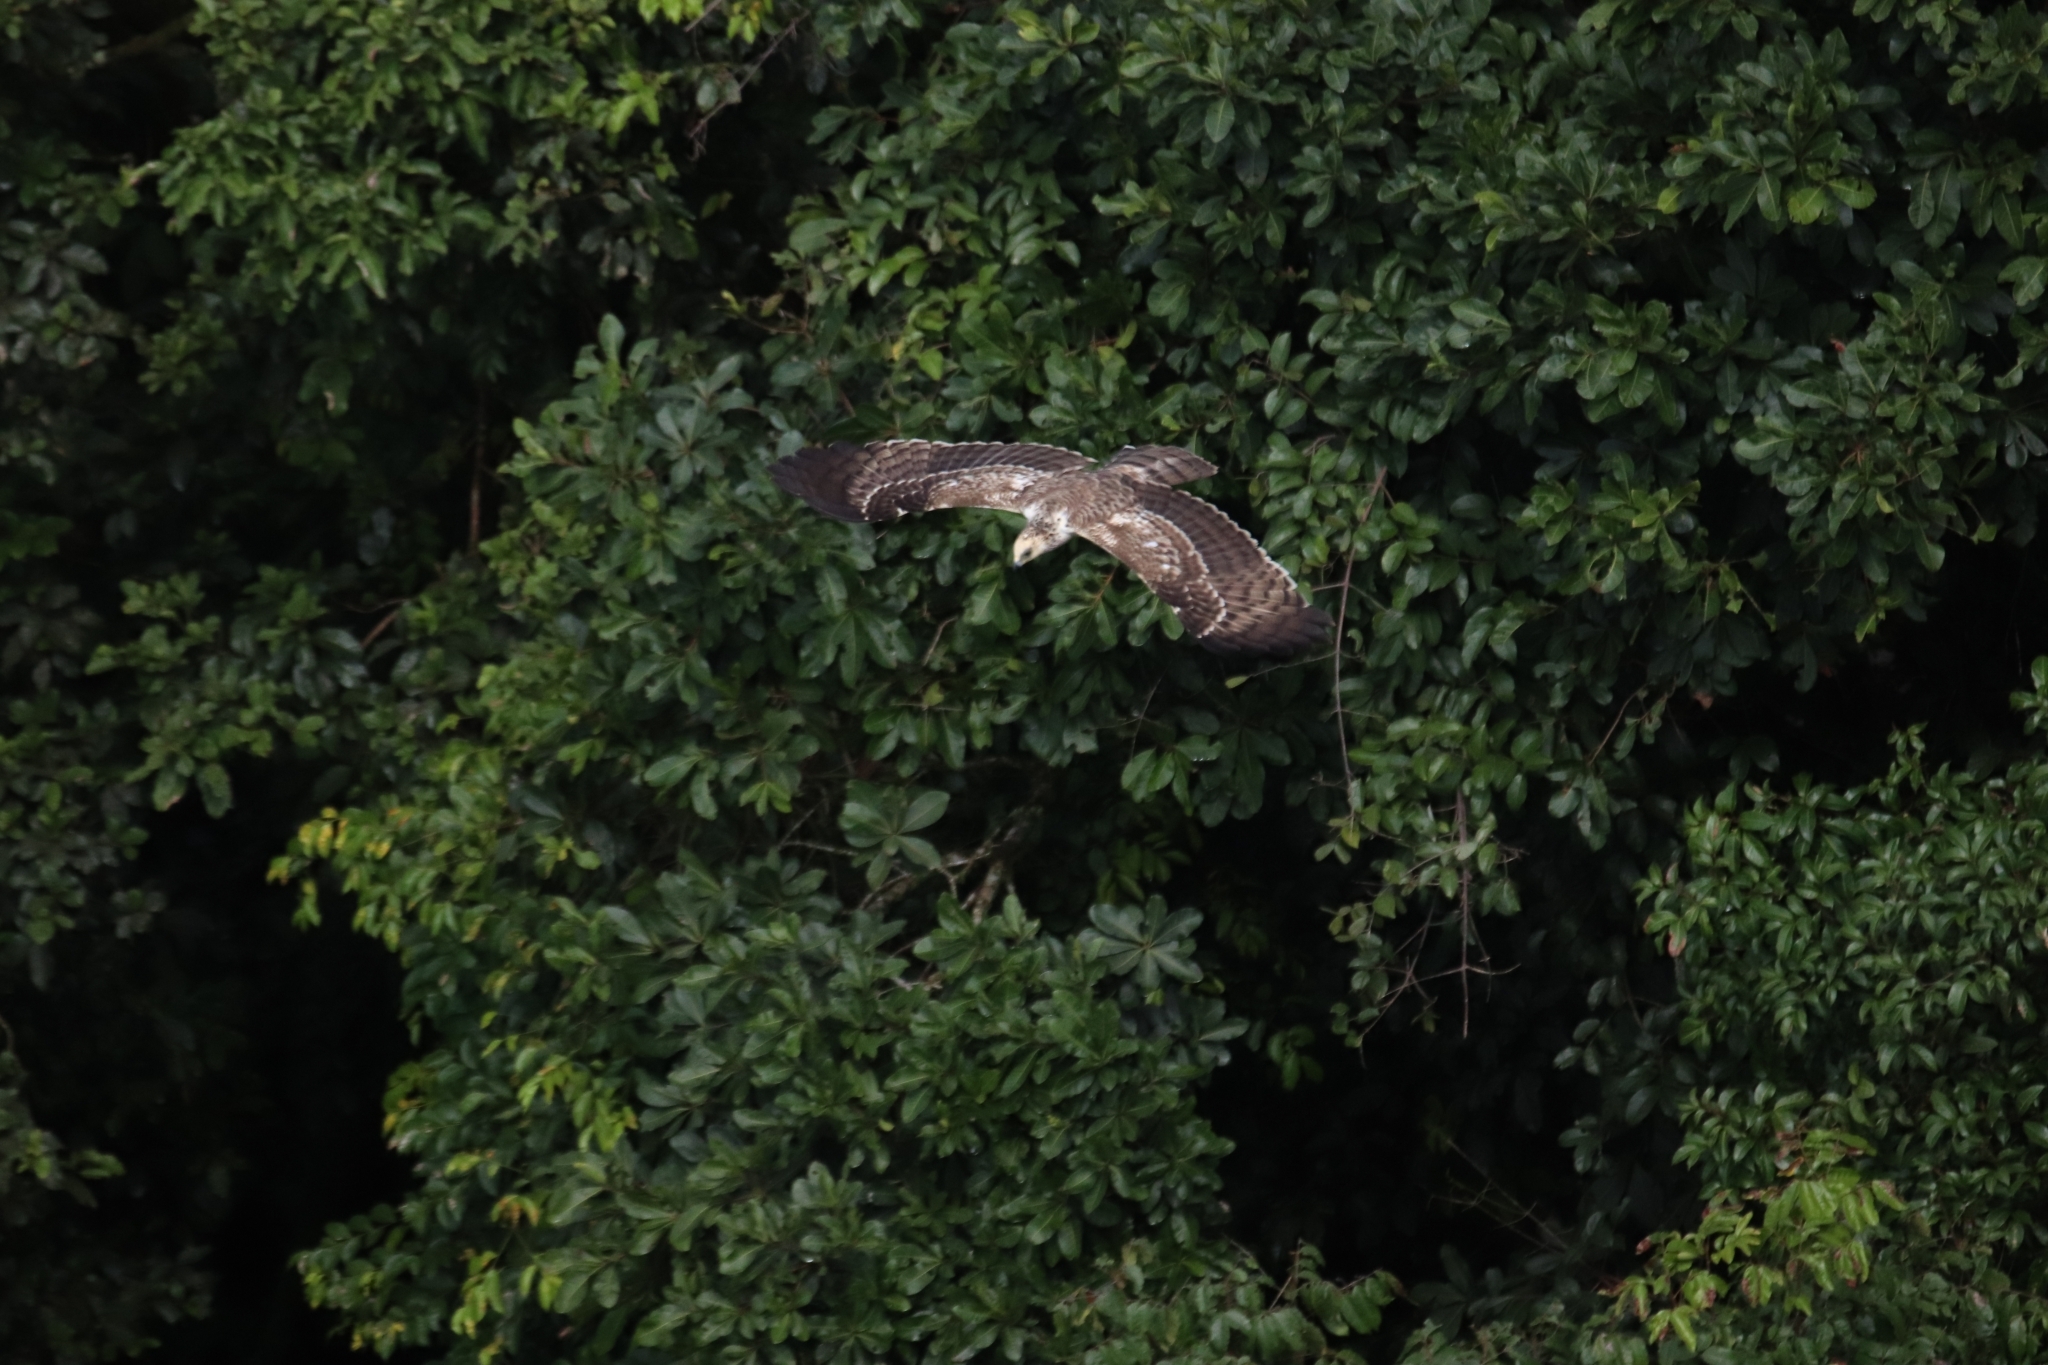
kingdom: Animalia
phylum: Chordata
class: Aves
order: Accipitriformes
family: Accipitridae
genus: Polyboroides
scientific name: Polyboroides typus
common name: African harrier-hawk
